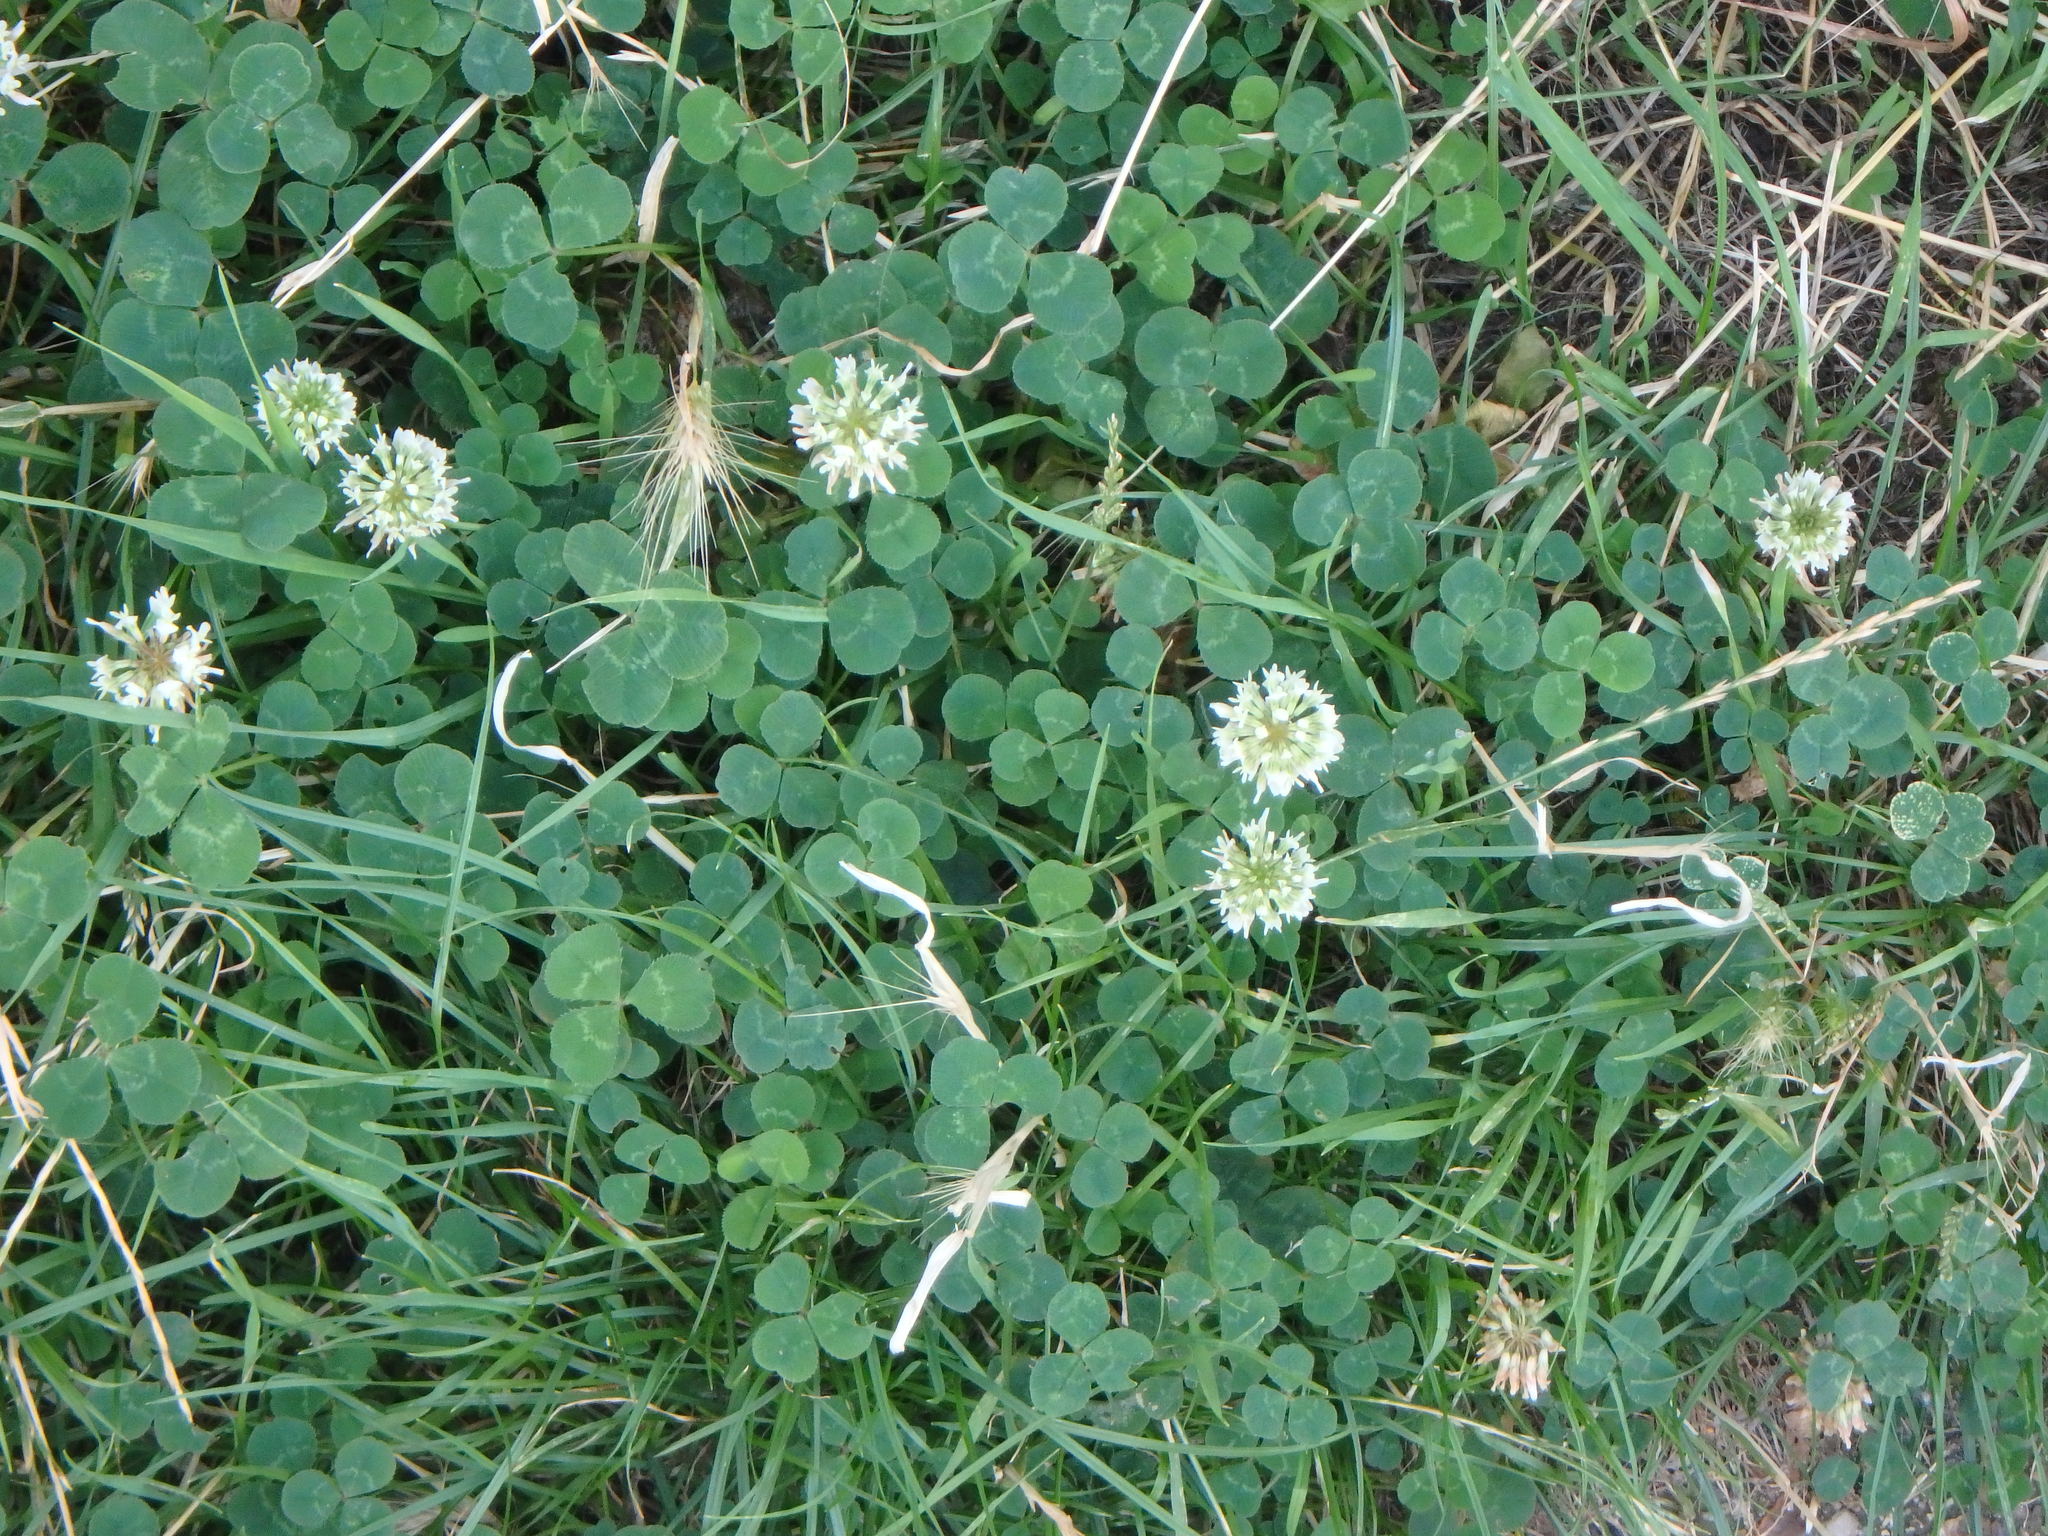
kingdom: Plantae
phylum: Tracheophyta
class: Magnoliopsida
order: Fabales
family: Fabaceae
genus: Trifolium
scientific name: Trifolium repens
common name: White clover
